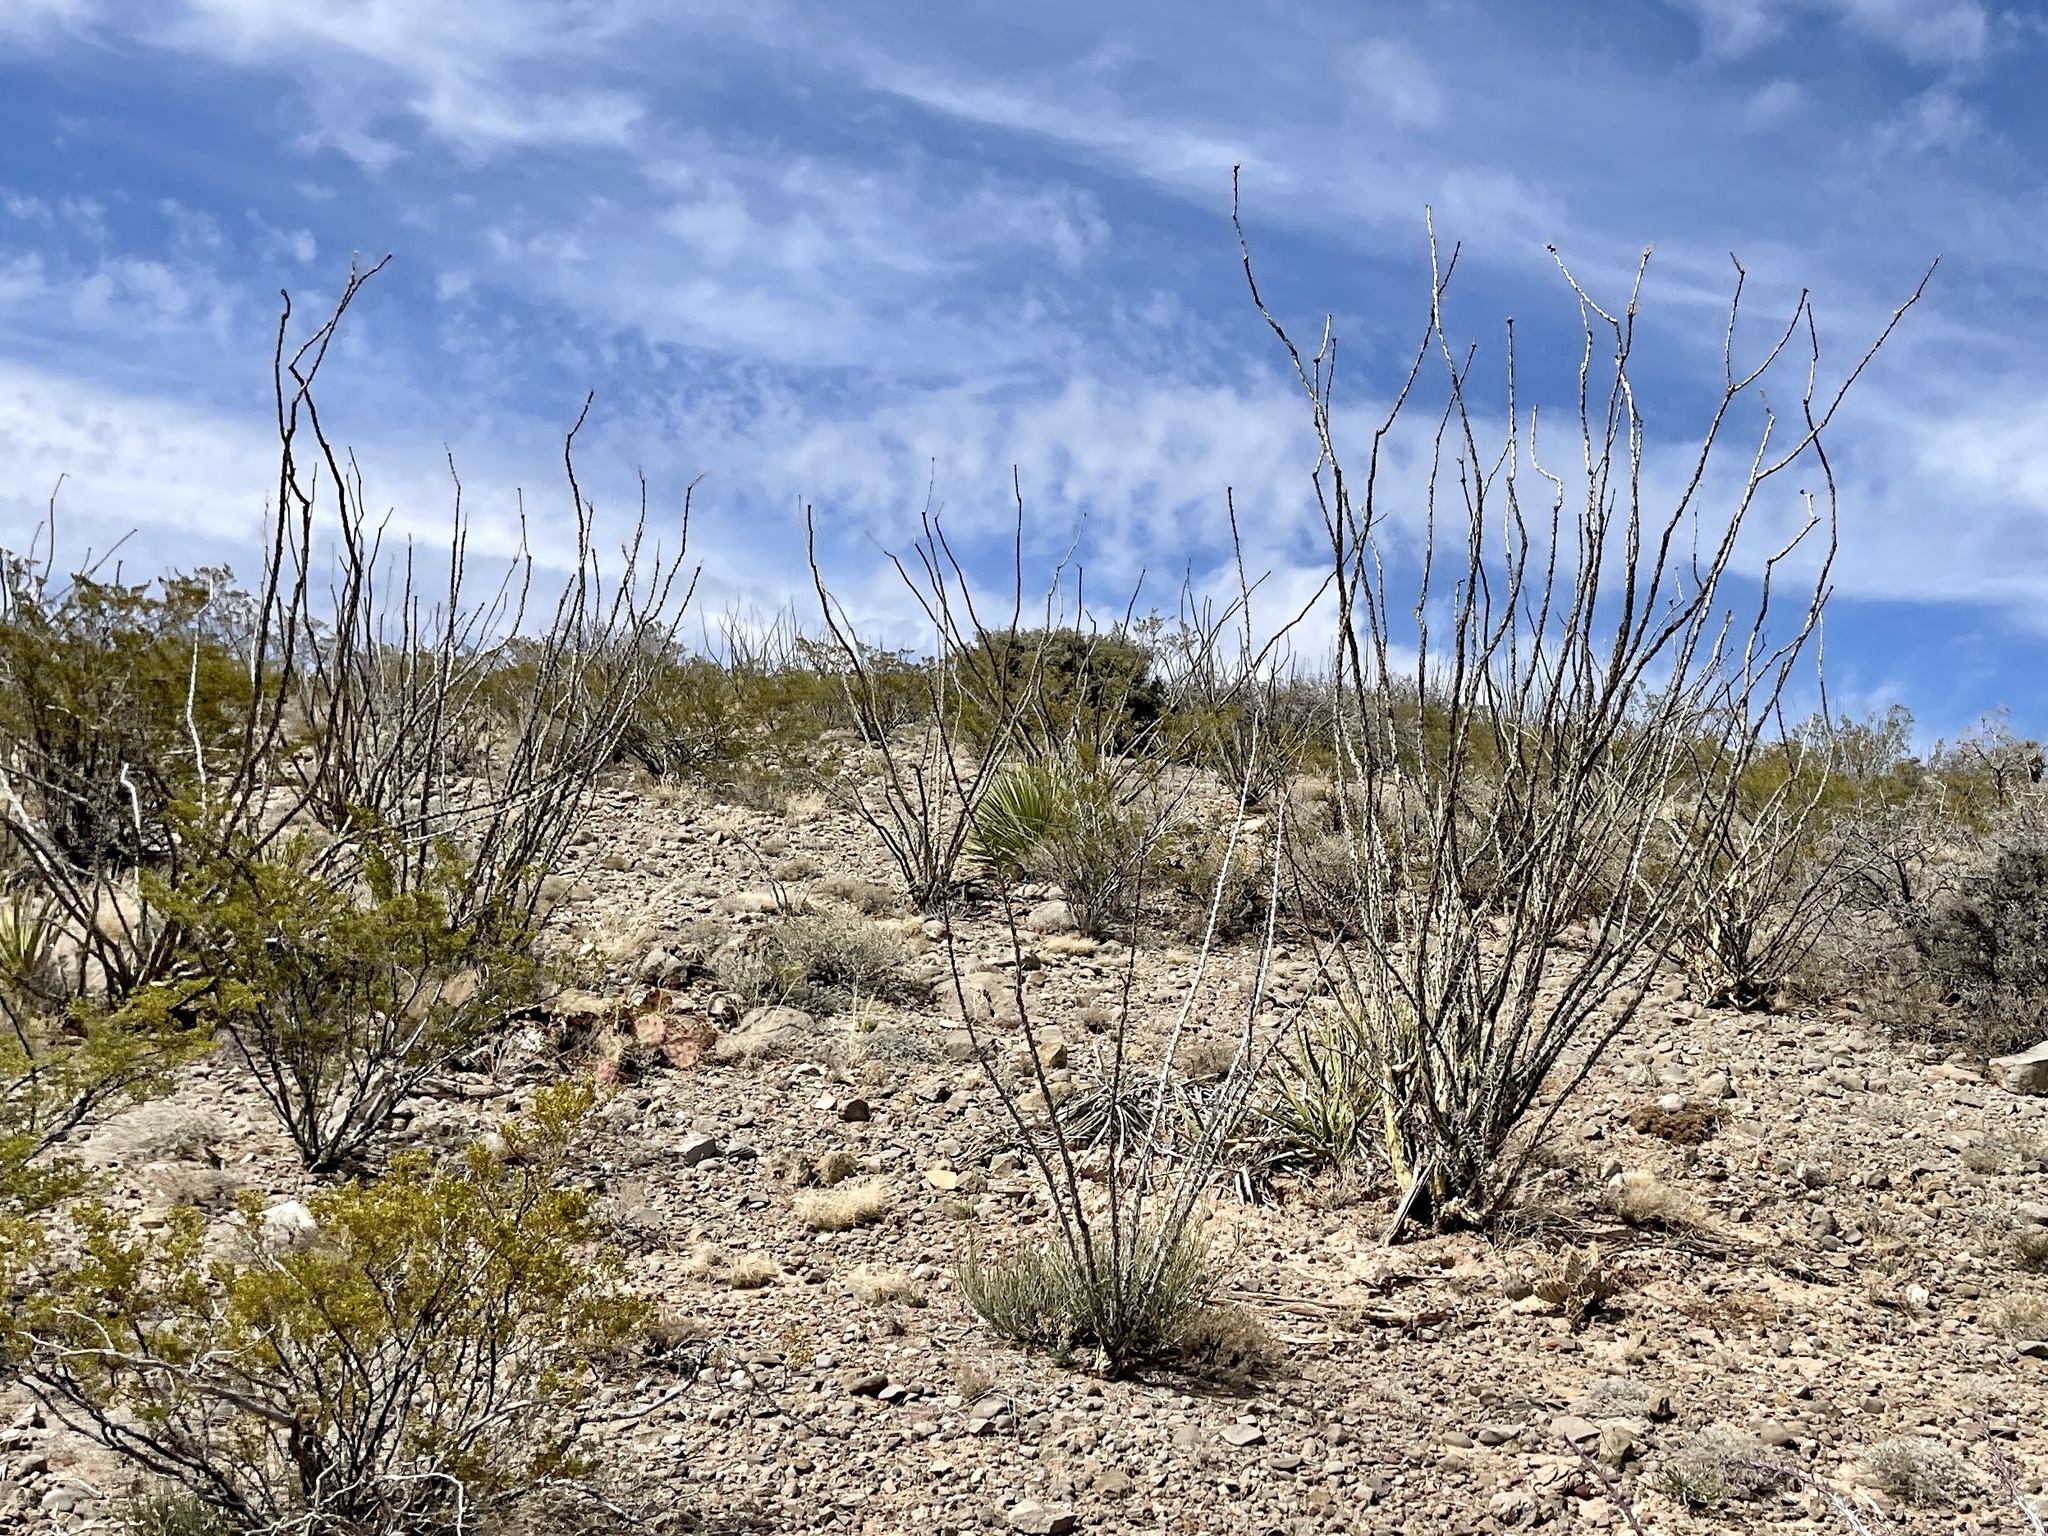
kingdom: Plantae
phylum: Tracheophyta
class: Magnoliopsida
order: Ericales
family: Fouquieriaceae
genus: Fouquieria
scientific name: Fouquieria splendens
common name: Vine-cactus
